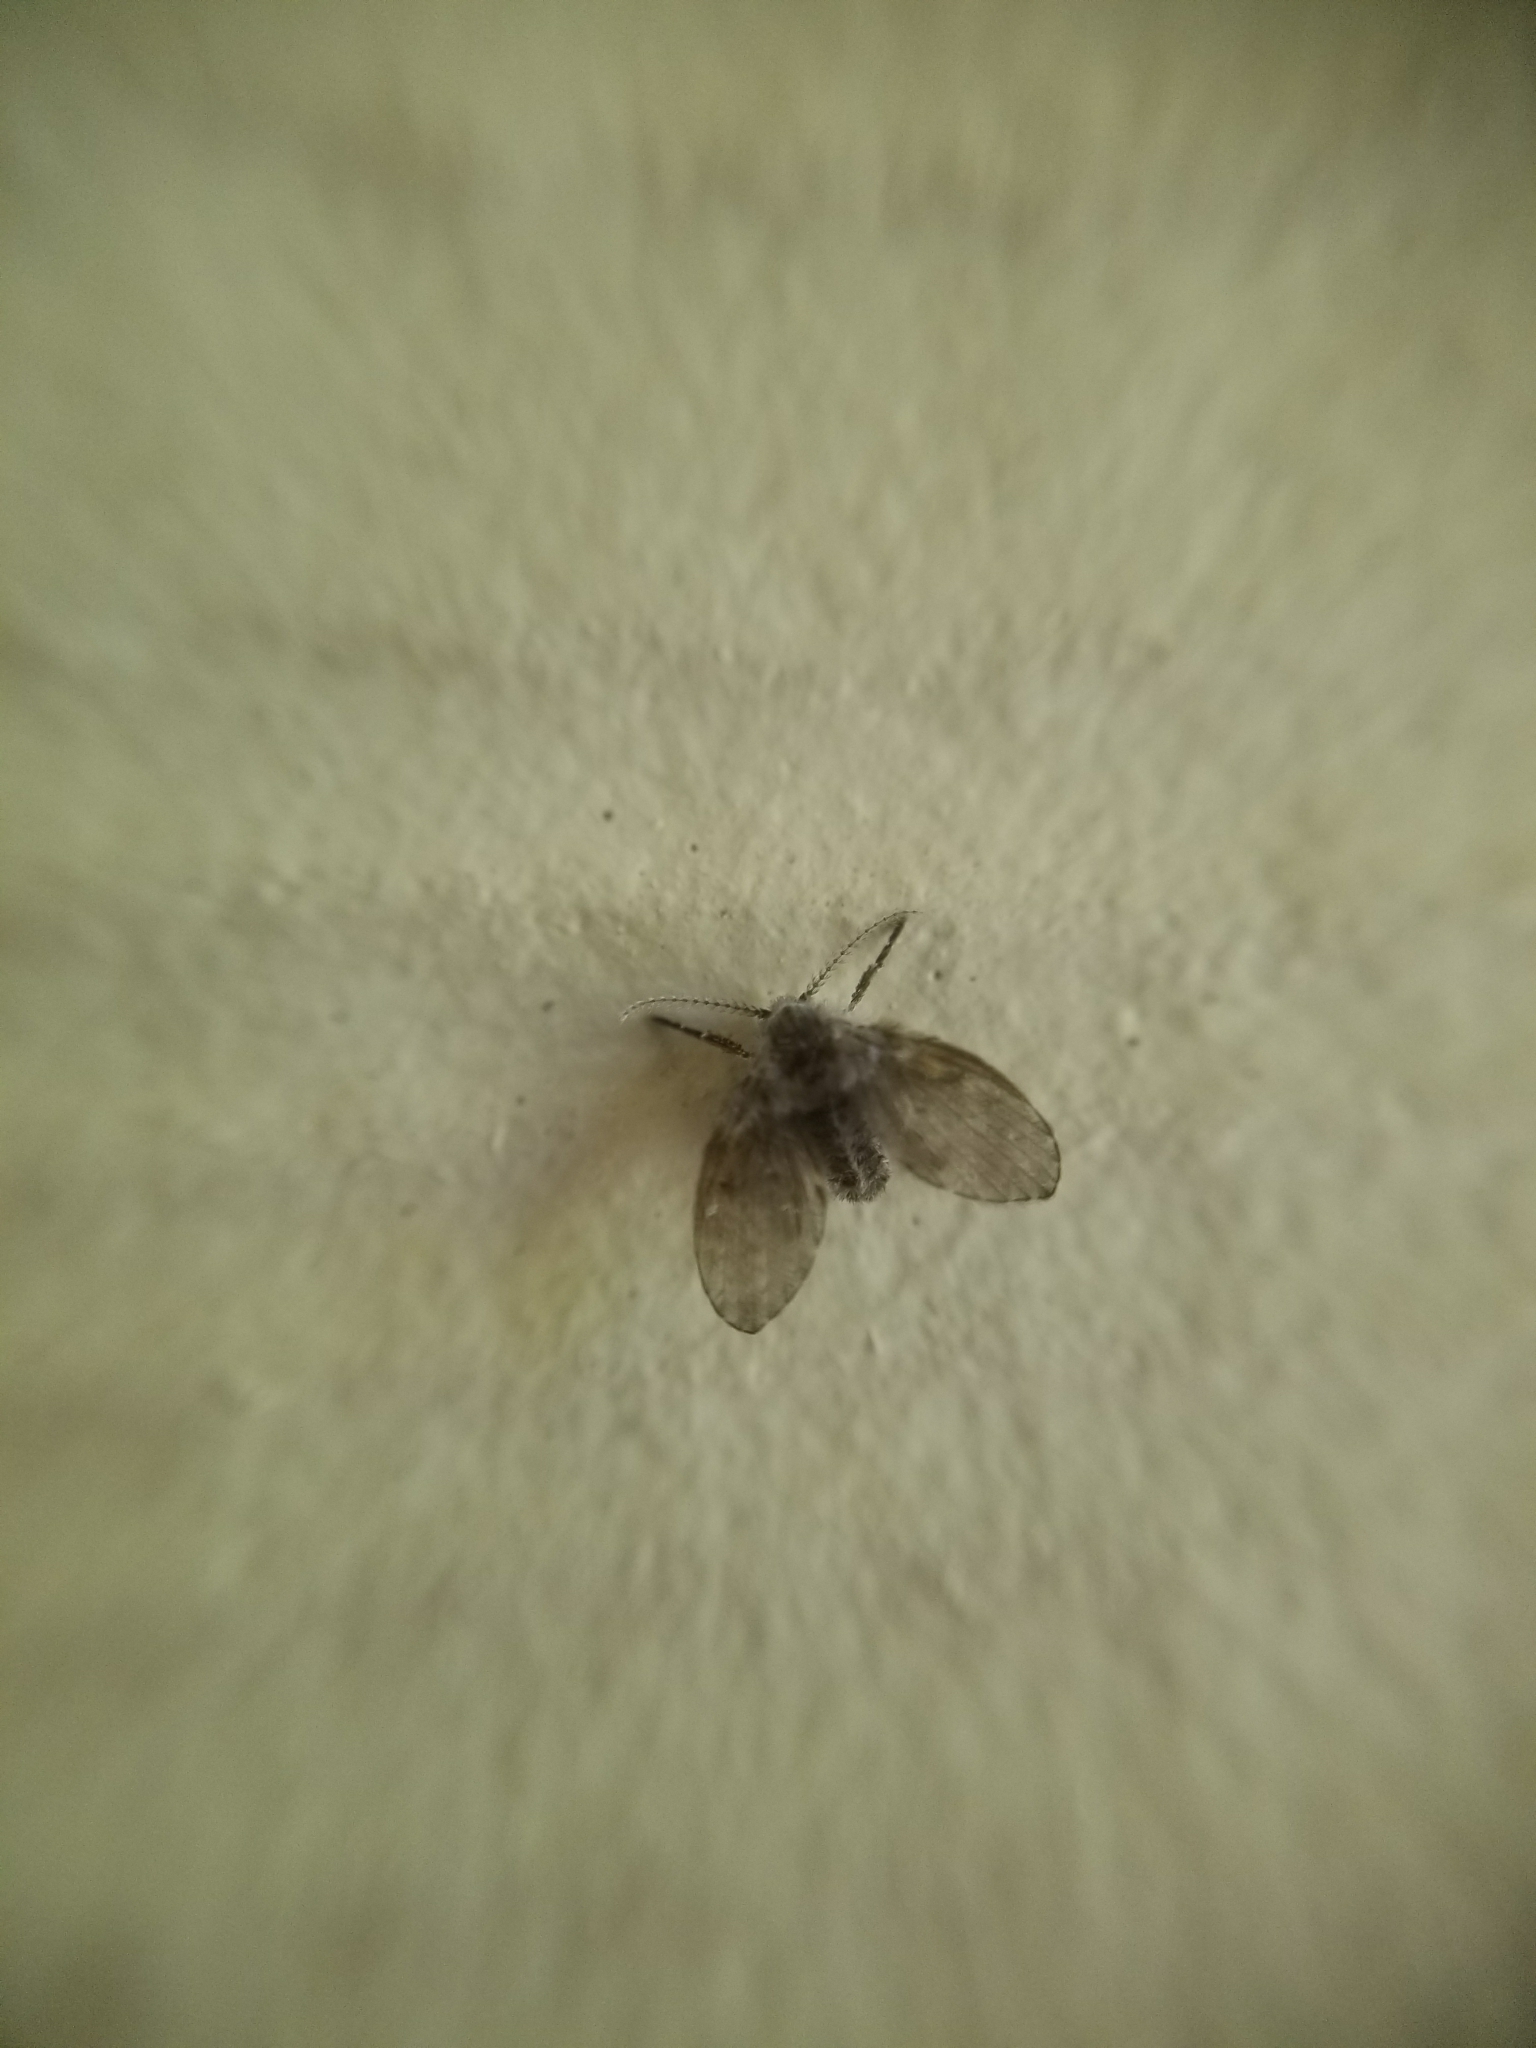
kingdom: Animalia
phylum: Arthropoda
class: Insecta
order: Diptera
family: Psychodidae
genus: Clogmia
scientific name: Clogmia albipunctatus
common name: White-spotted moth fly
